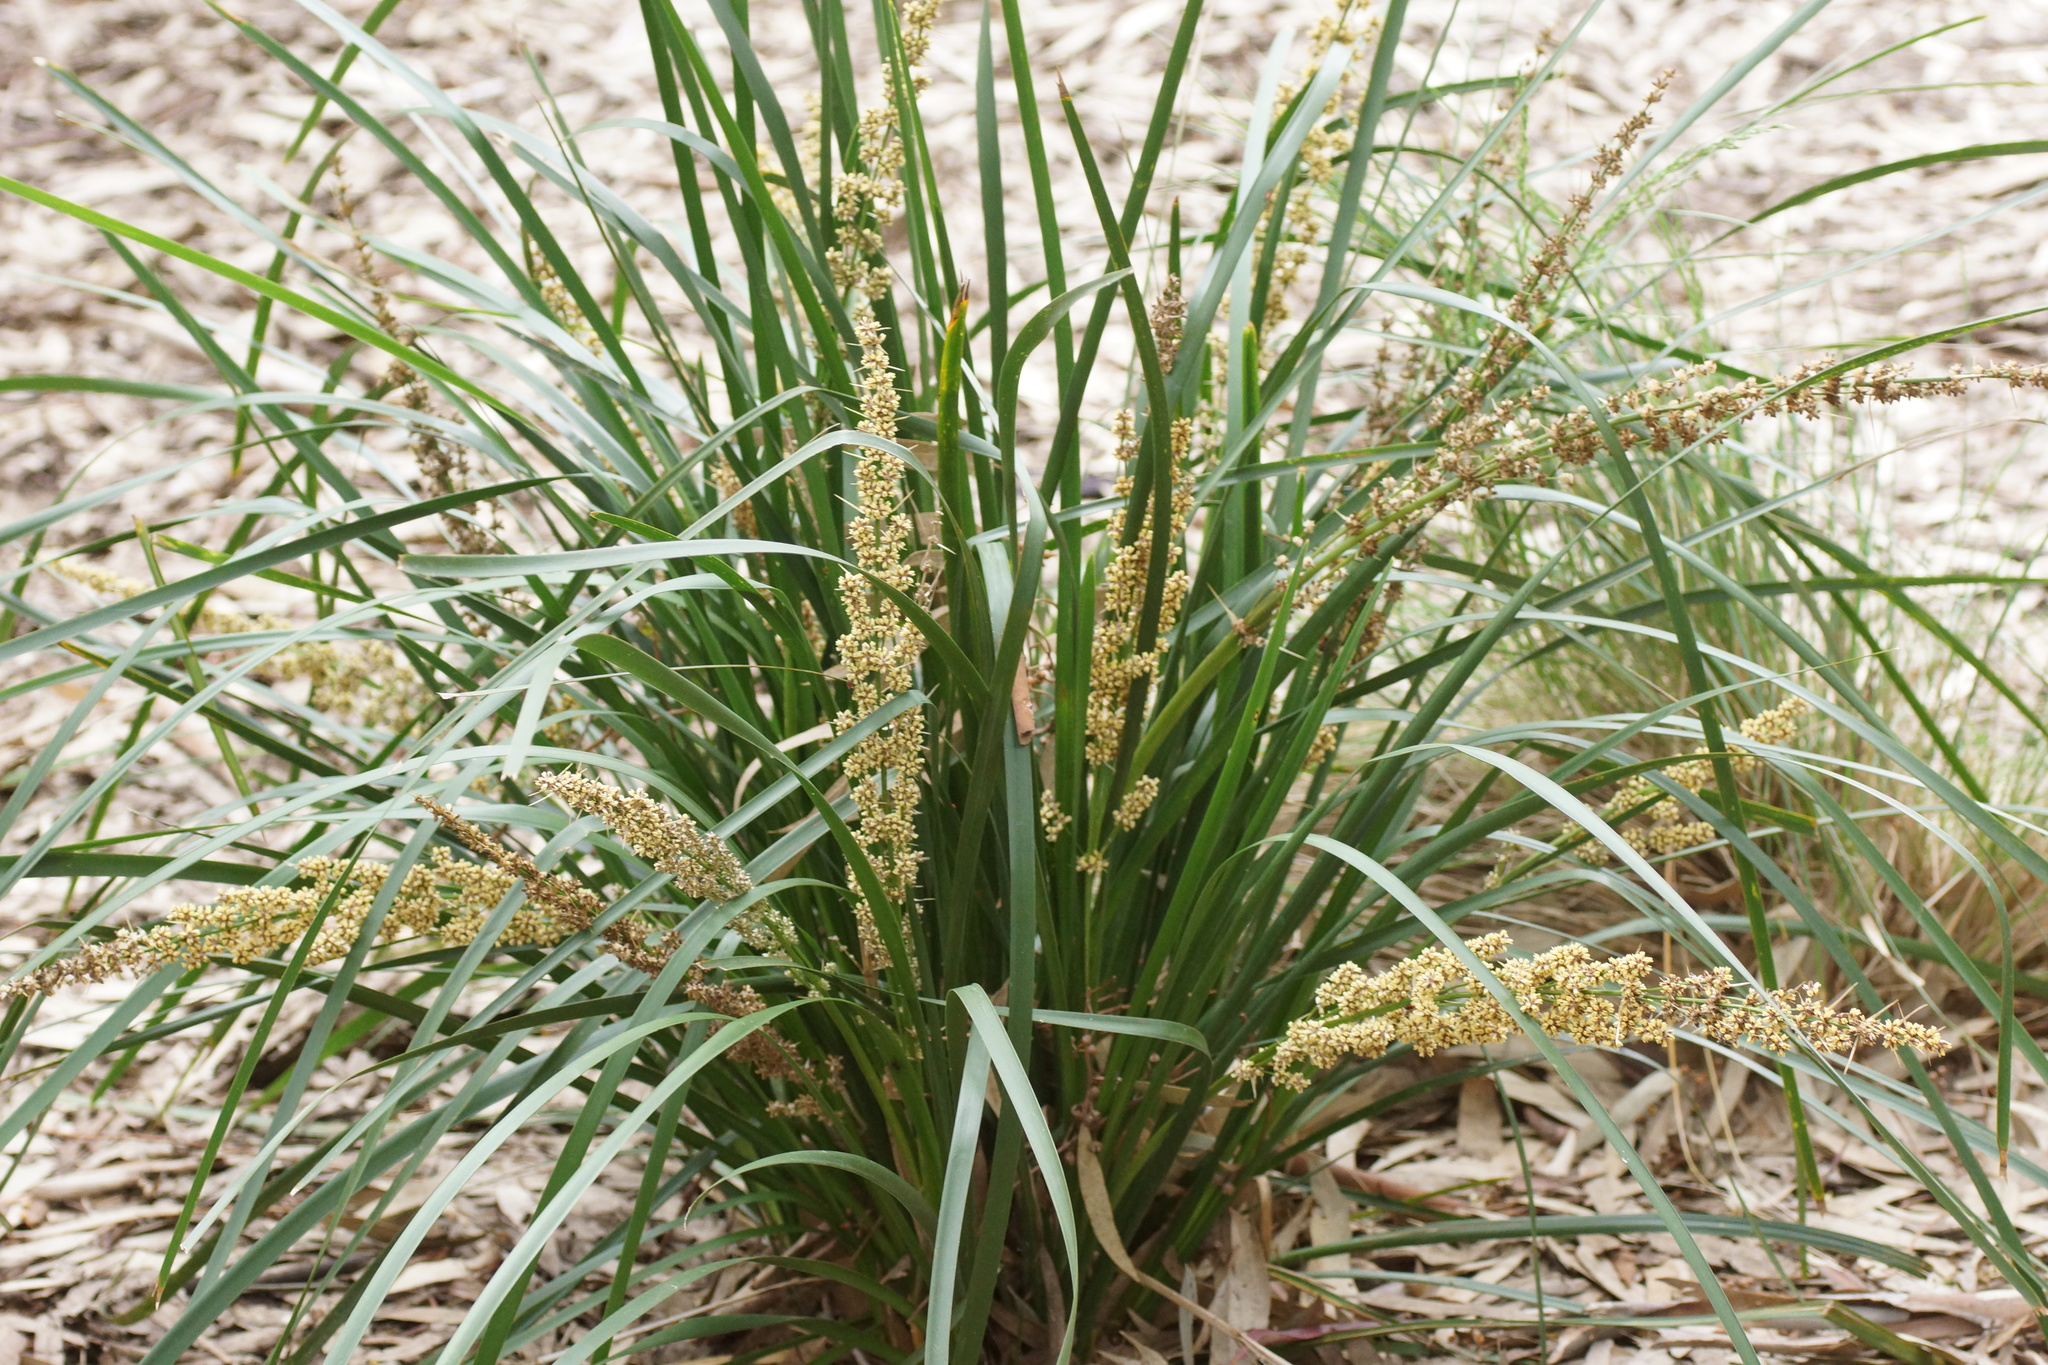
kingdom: Plantae
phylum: Tracheophyta
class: Liliopsida
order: Asparagales
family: Asparagaceae
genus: Lomandra
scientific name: Lomandra longifolia
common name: Longleaf mat-rush
